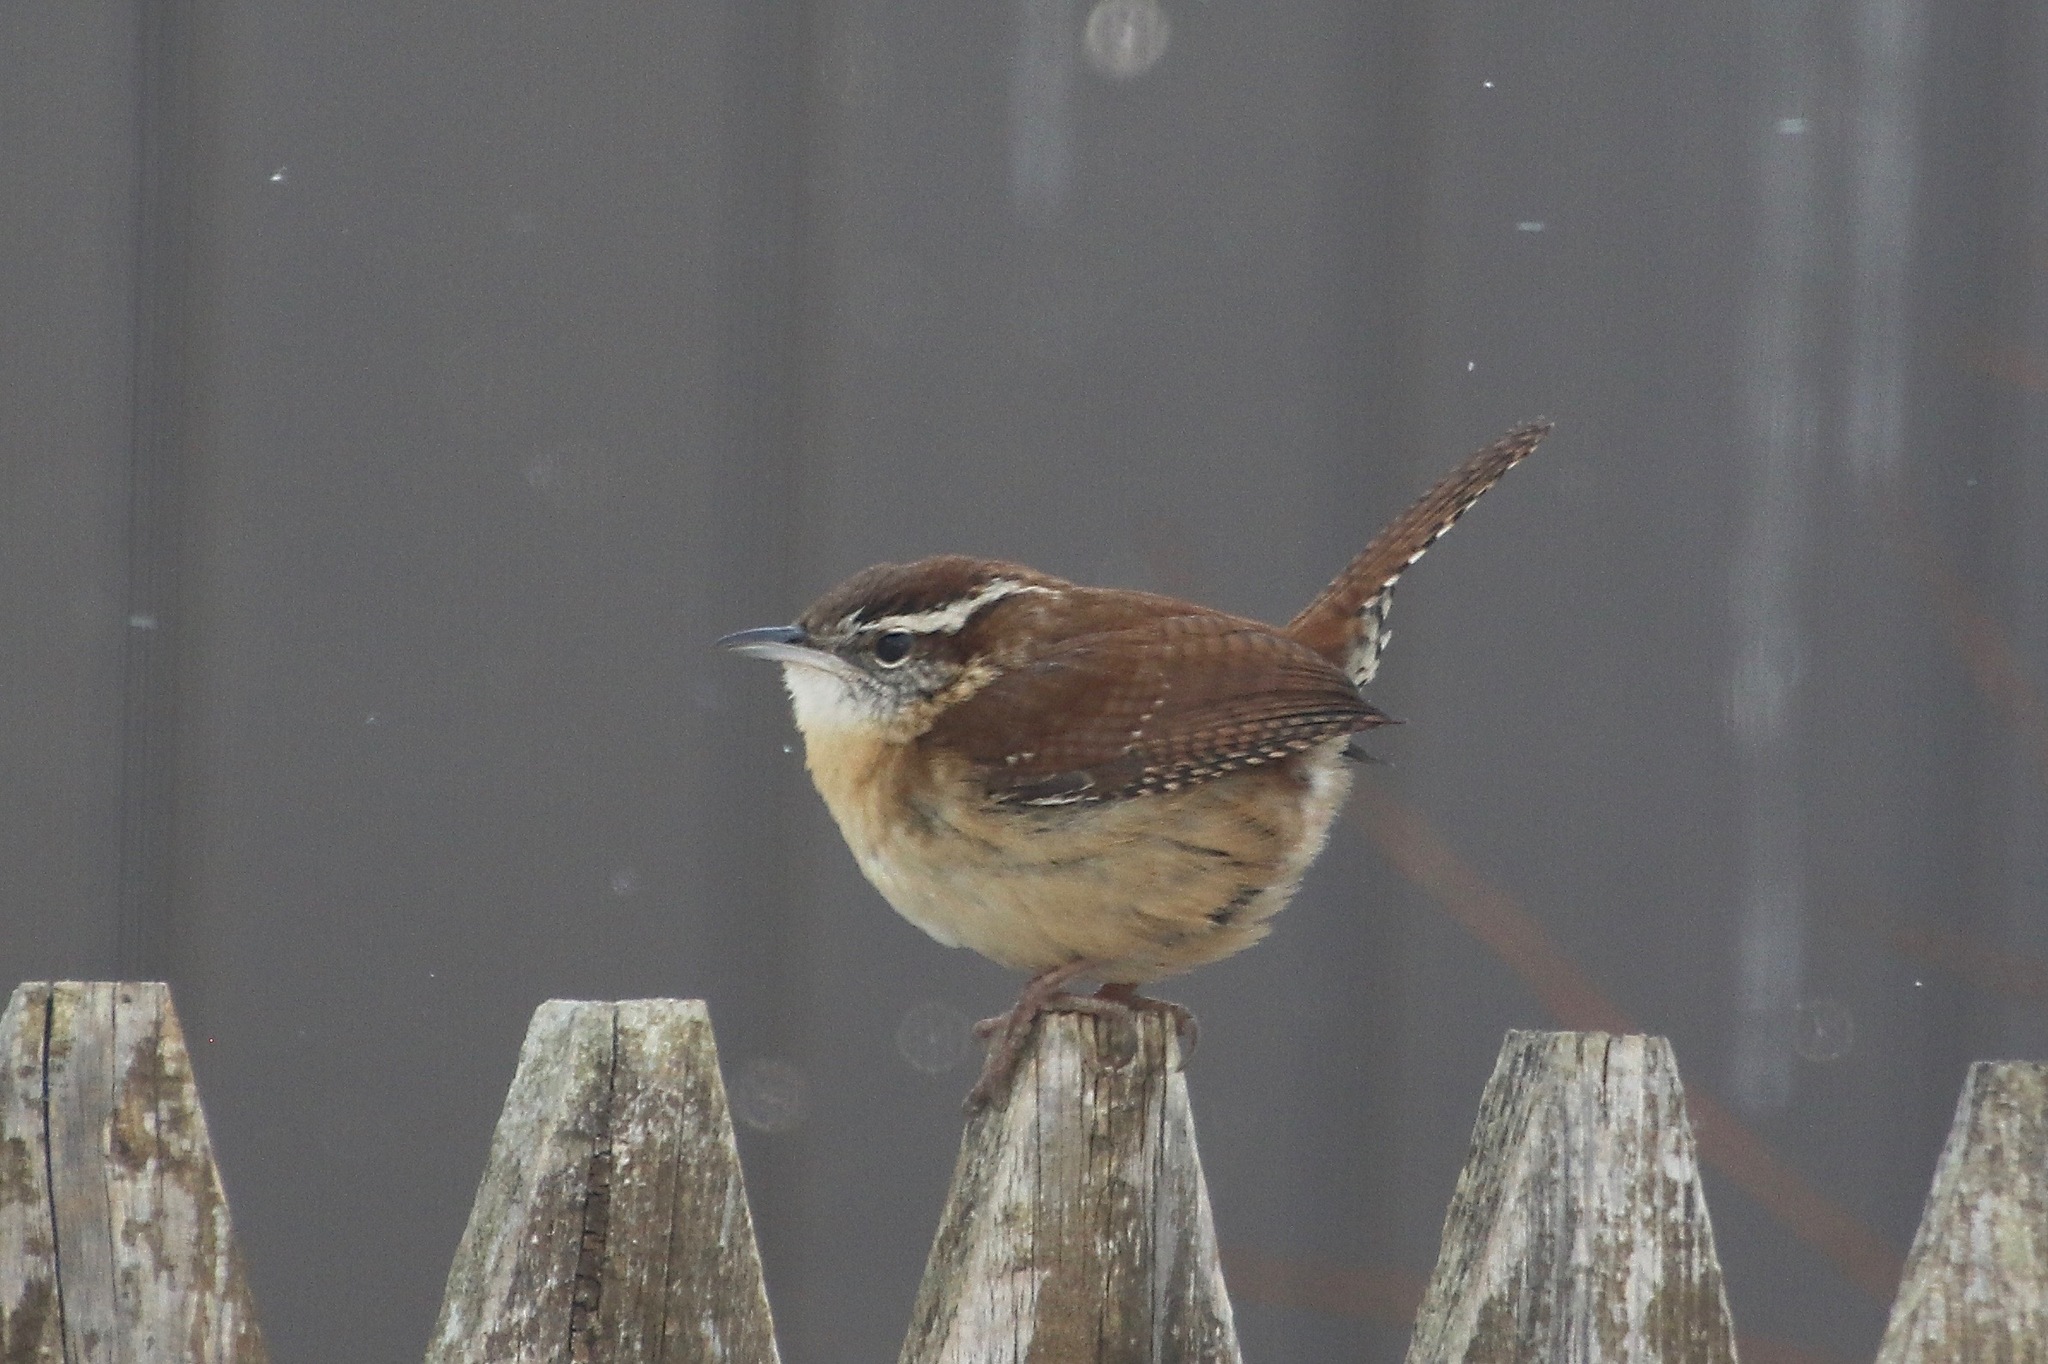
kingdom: Animalia
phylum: Chordata
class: Aves
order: Passeriformes
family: Troglodytidae
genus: Thryothorus
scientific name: Thryothorus ludovicianus
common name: Carolina wren
